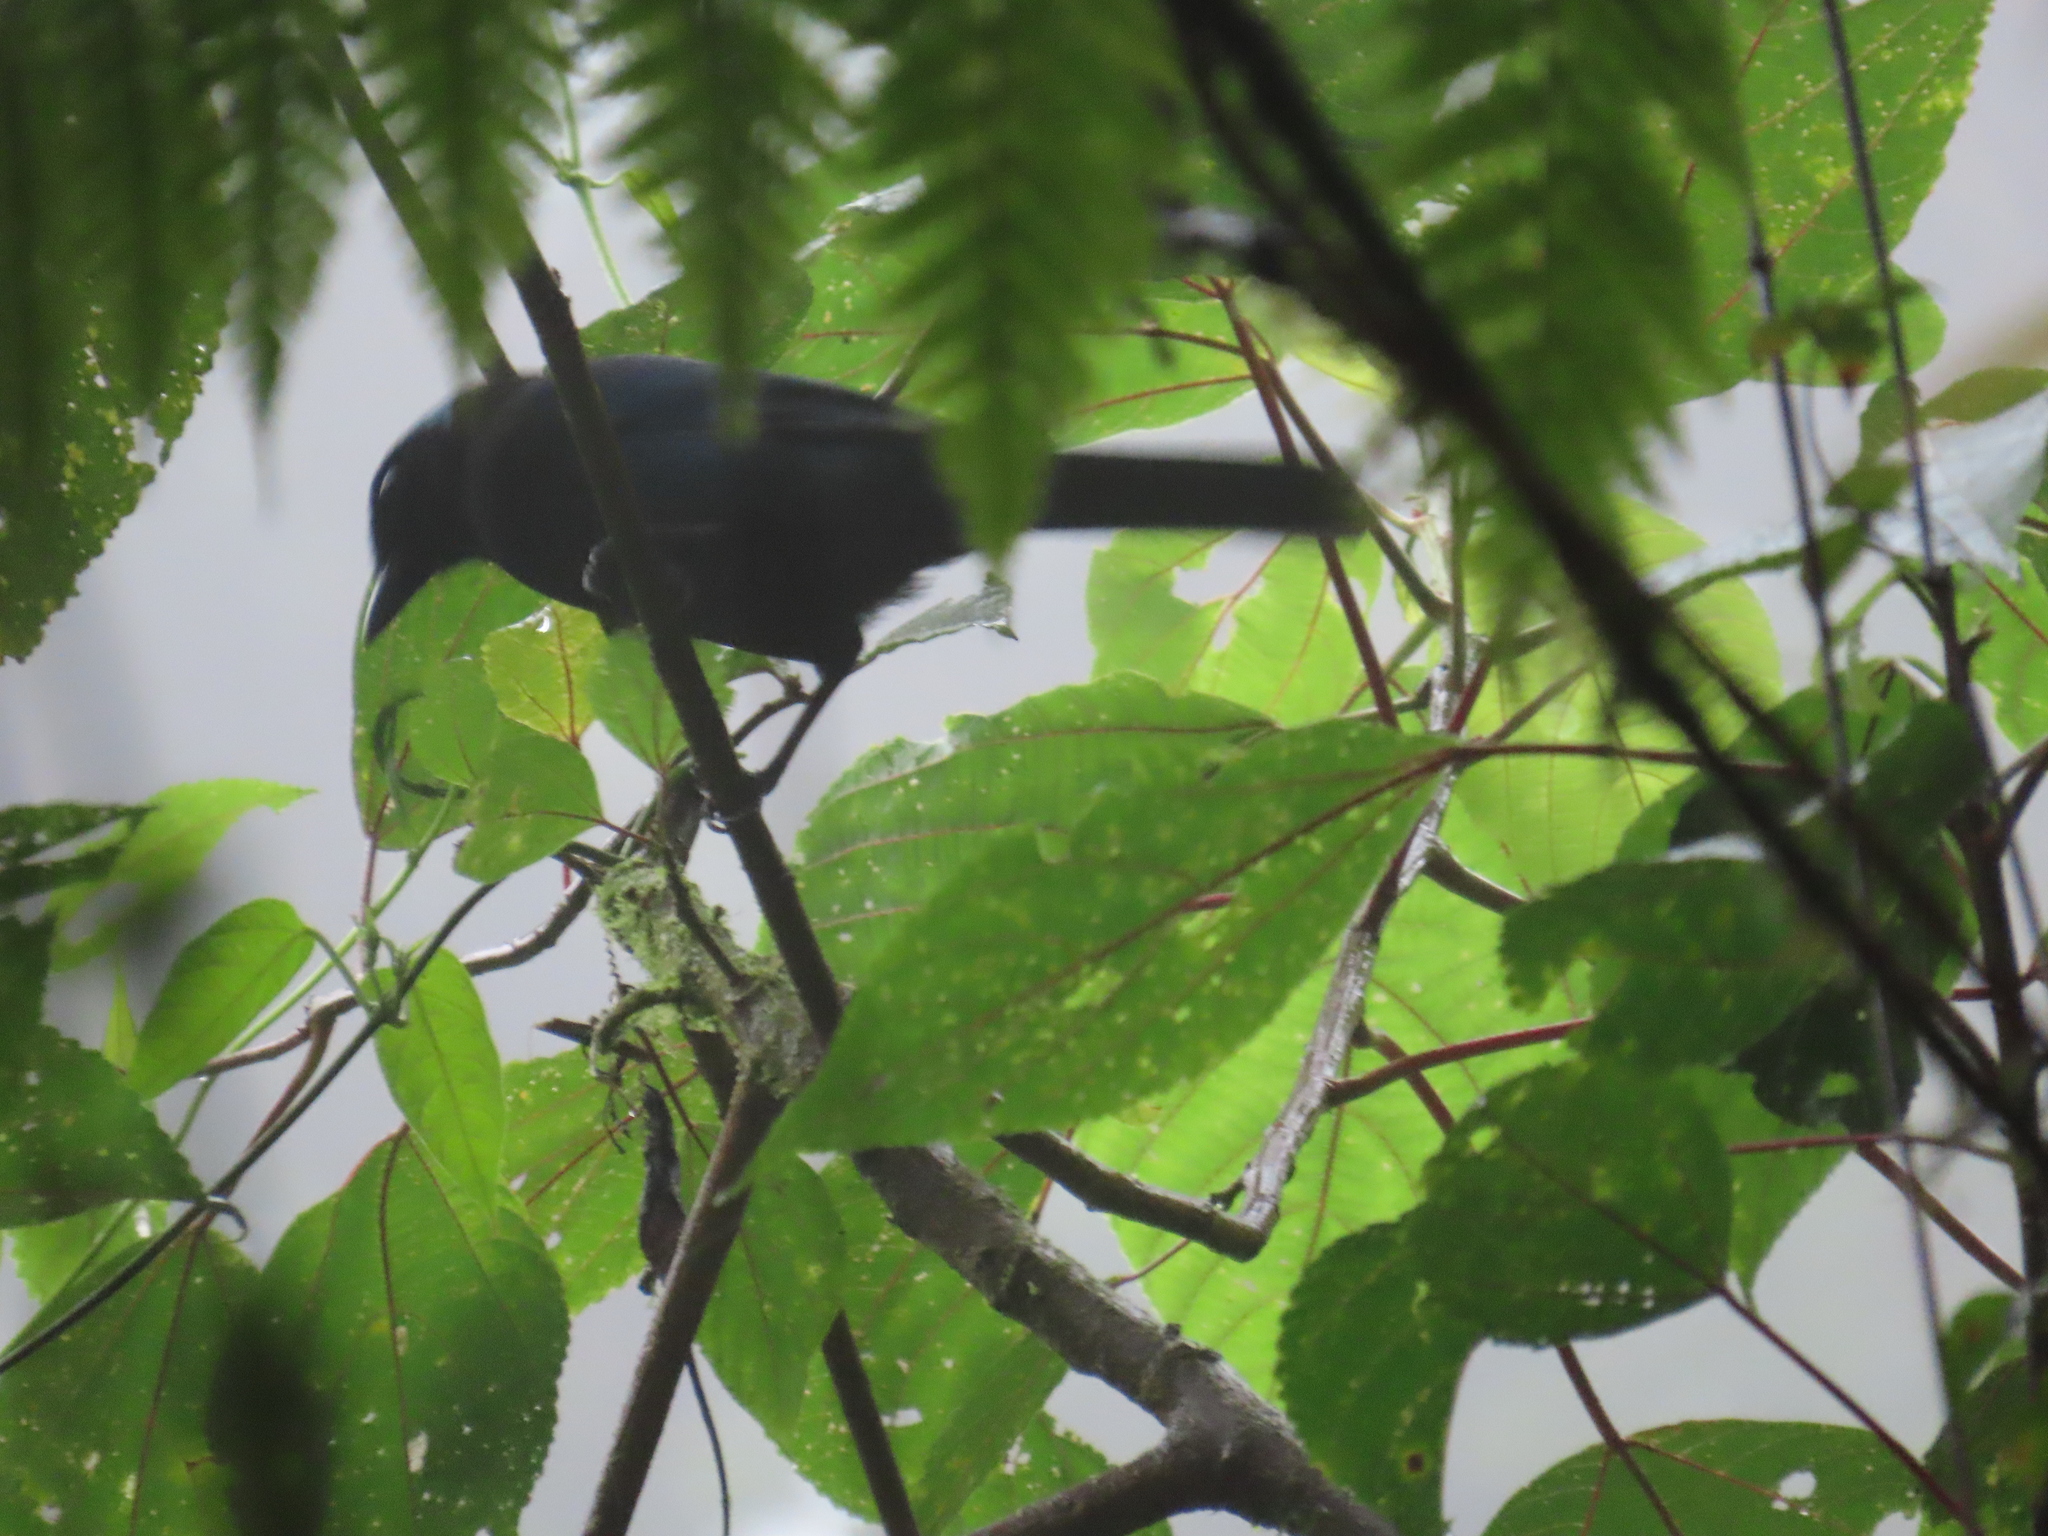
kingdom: Animalia
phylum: Chordata
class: Aves
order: Passeriformes
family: Corvidae
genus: Cyanolyca
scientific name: Cyanolyca cucullata
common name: Azure-hooded jay
